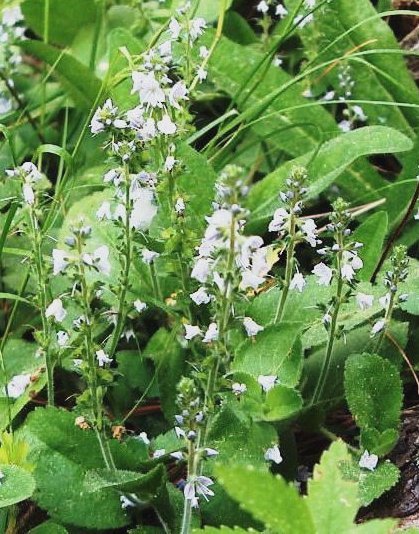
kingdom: Plantae
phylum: Tracheophyta
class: Magnoliopsida
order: Lamiales
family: Plantaginaceae
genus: Veronica
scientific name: Veronica officinalis
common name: Common speedwell
